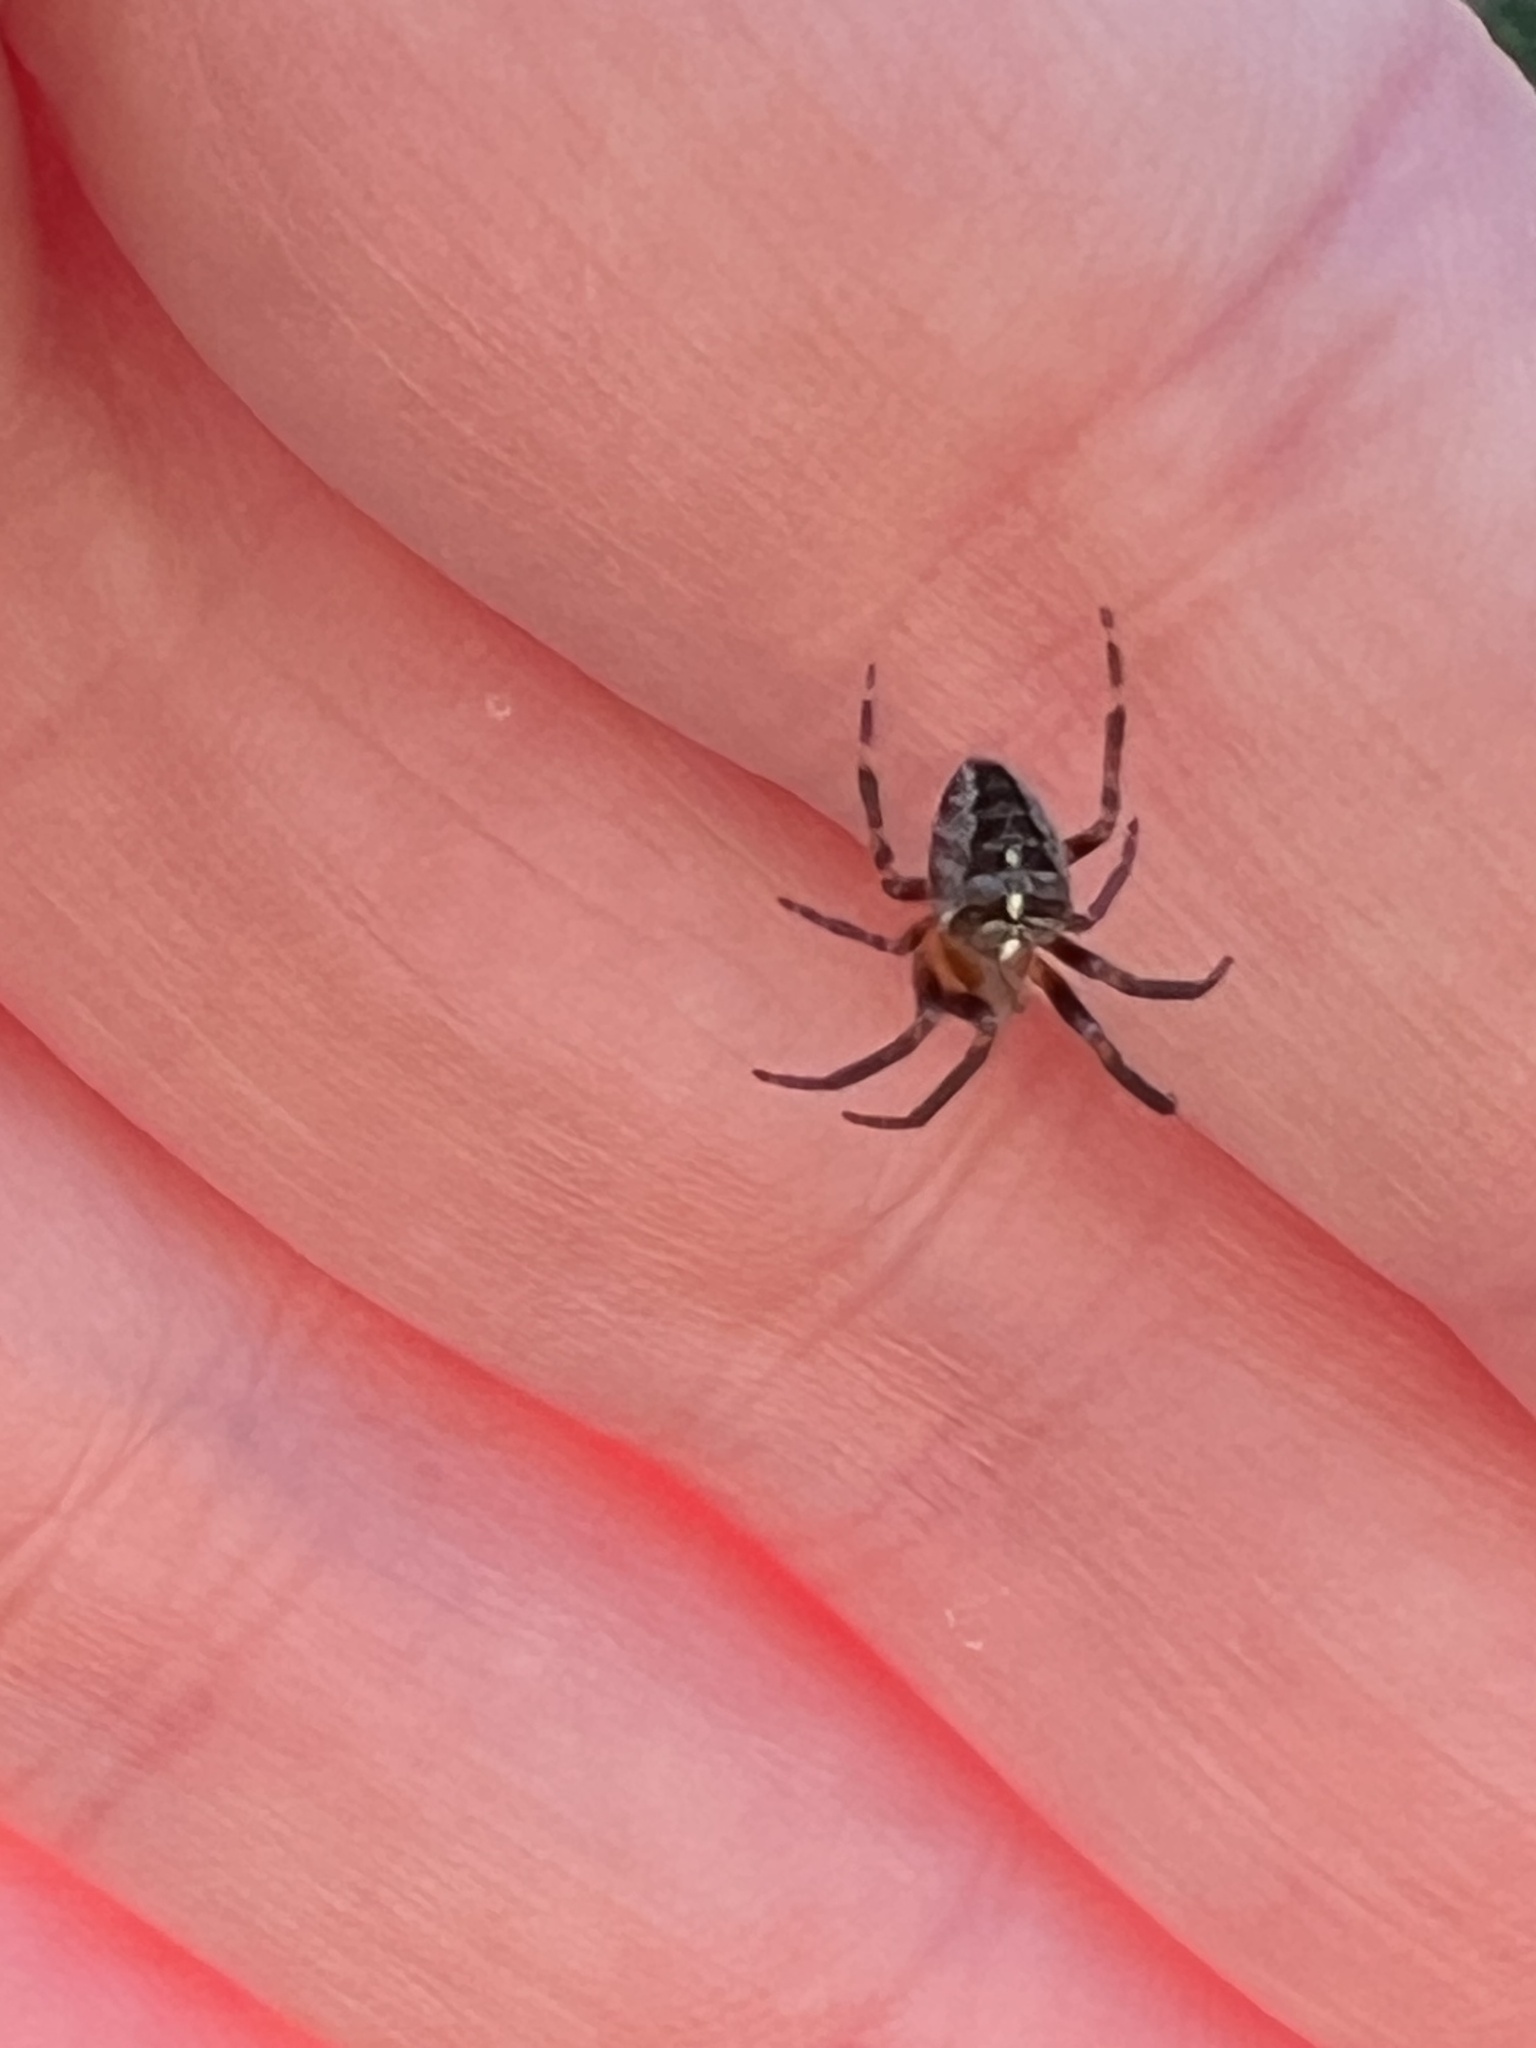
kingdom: Animalia
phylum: Arthropoda
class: Arachnida
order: Araneae
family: Araneidae
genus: Araneus
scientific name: Araneus diadematus
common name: Cross orbweaver
